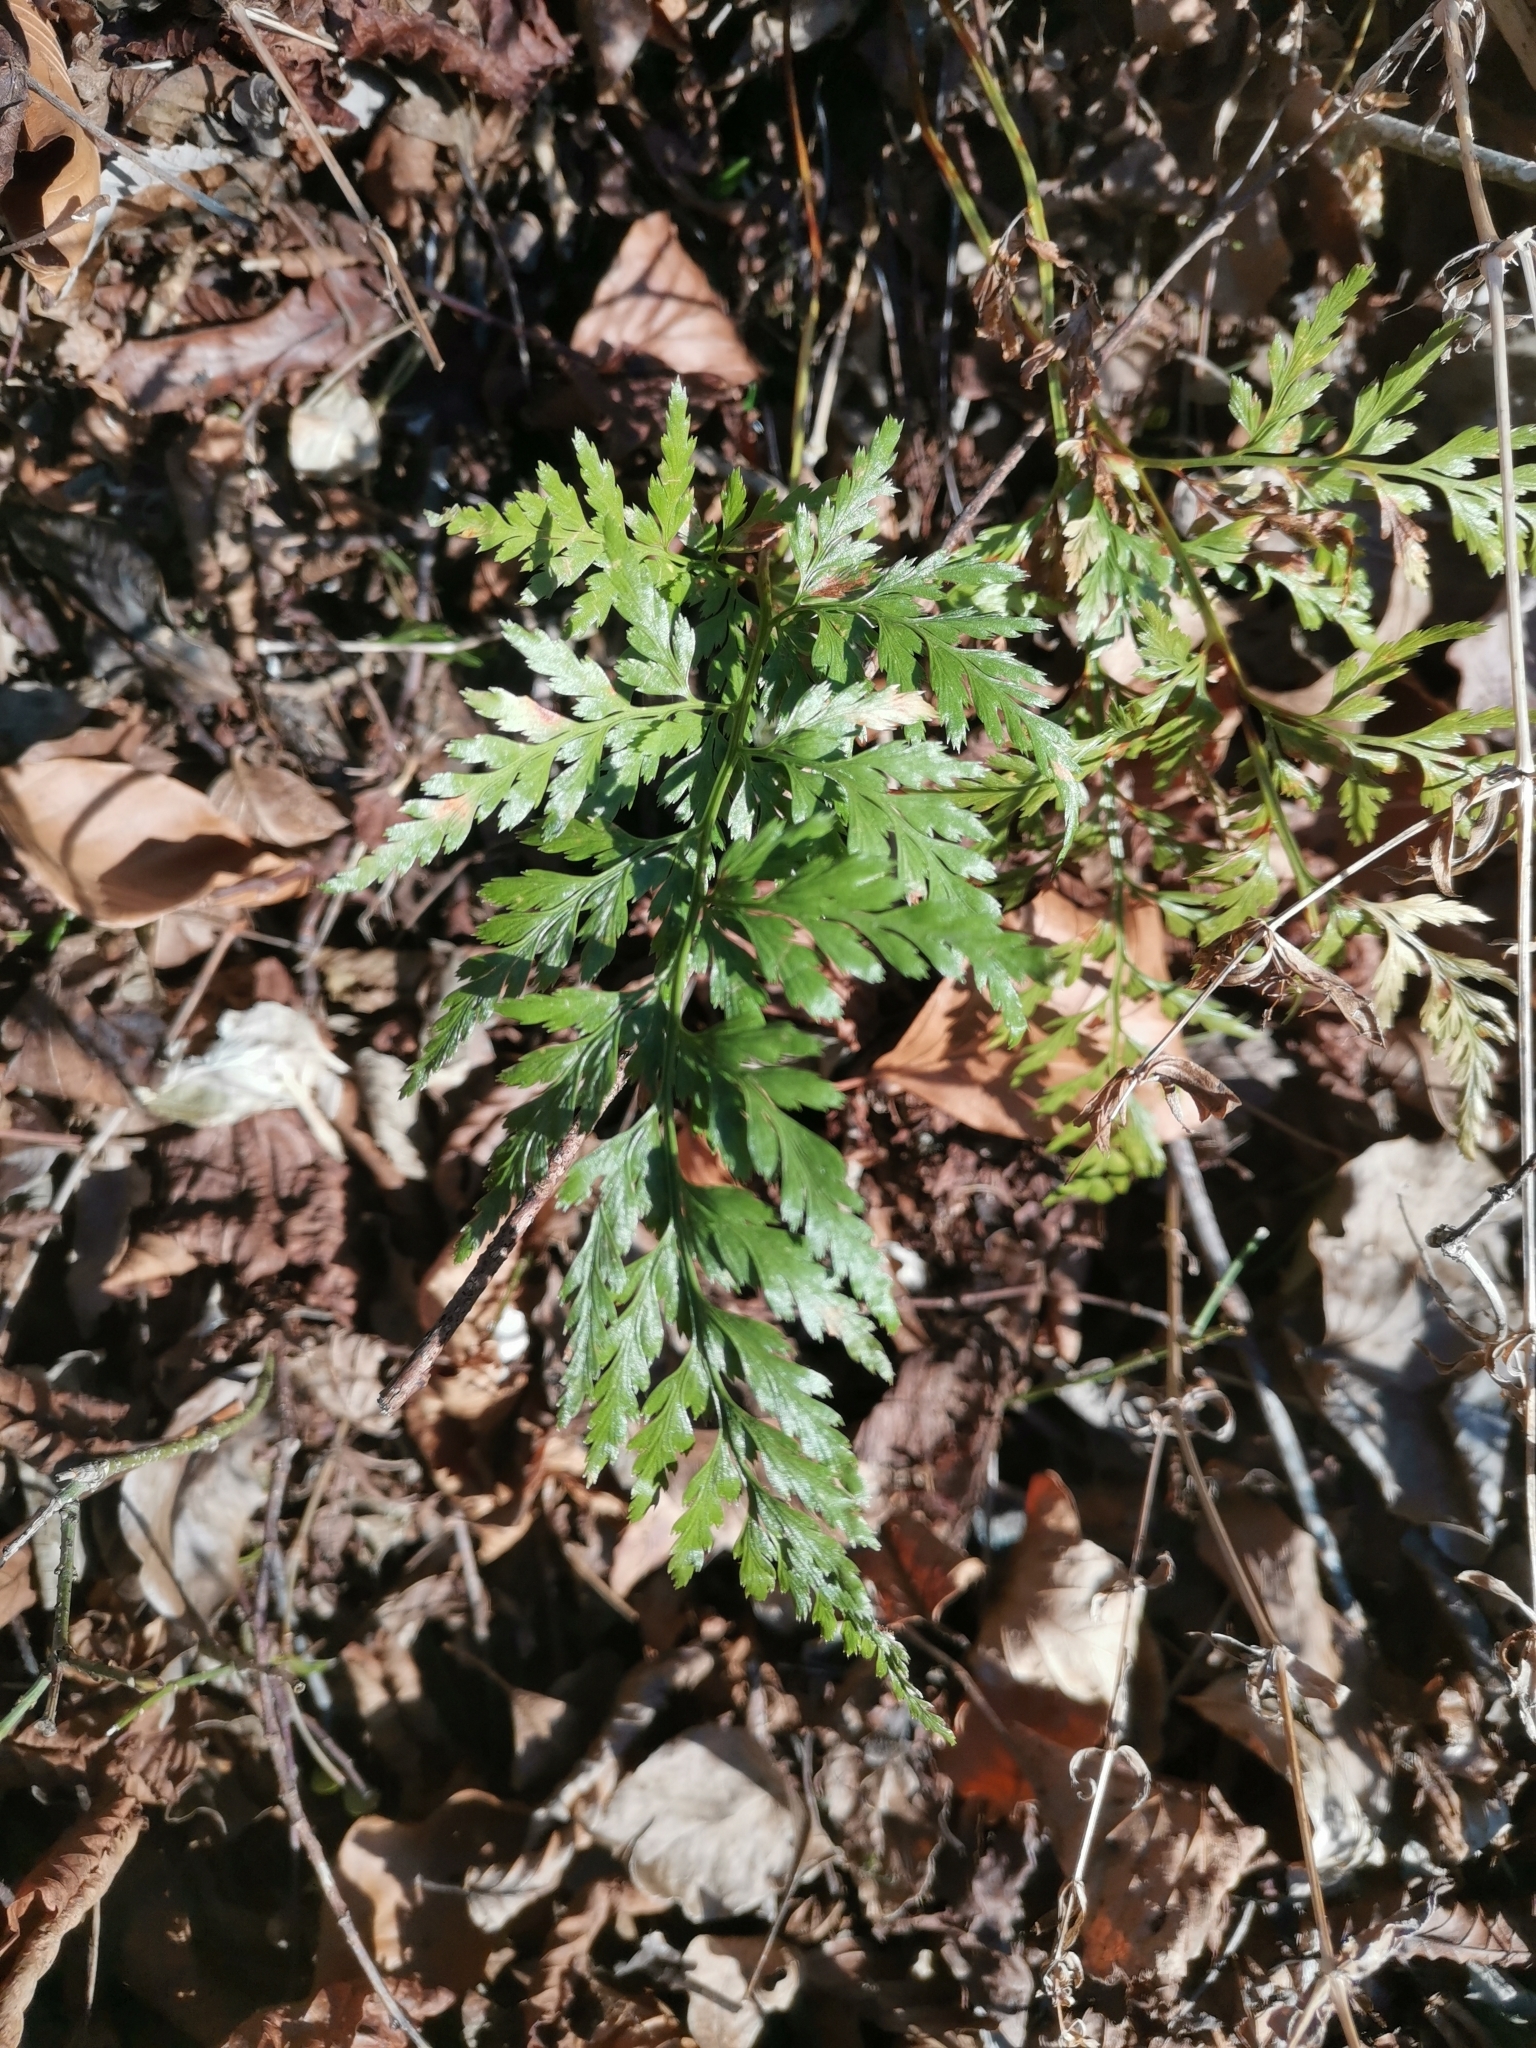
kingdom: Plantae
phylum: Tracheophyta
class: Polypodiopsida
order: Polypodiales
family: Aspleniaceae
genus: Asplenium
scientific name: Asplenium adiantum-nigrum
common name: Black spleenwort
